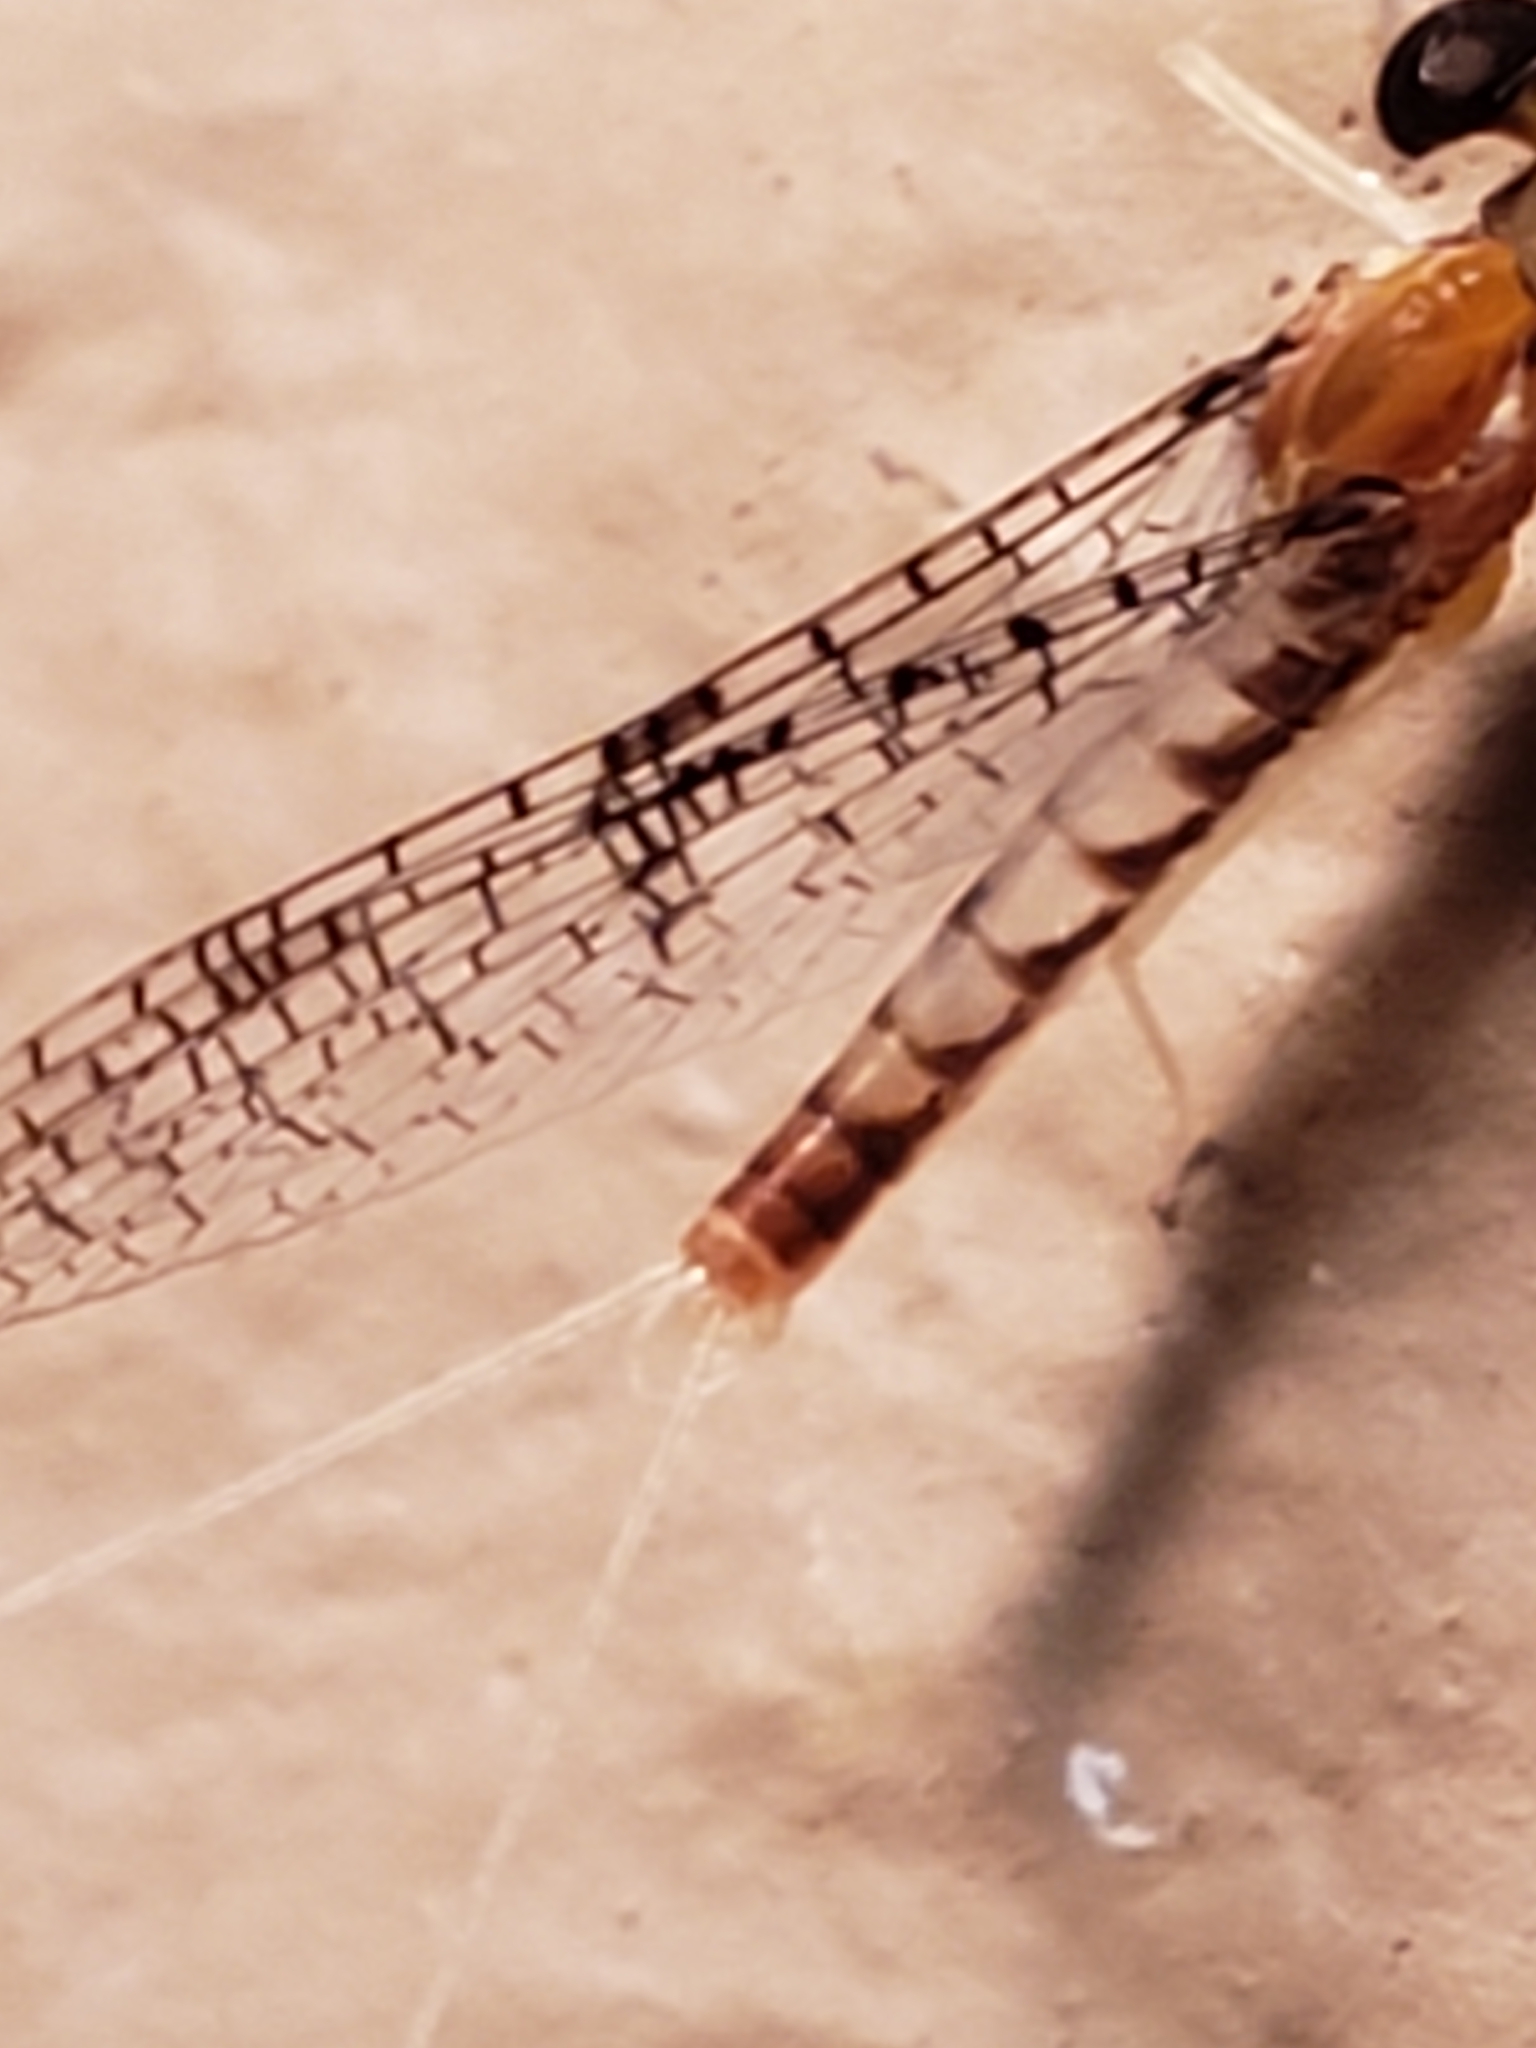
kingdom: Animalia
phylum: Arthropoda
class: Insecta
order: Ephemeroptera
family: Heptageniidae
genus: Leucrocuta
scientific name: Leucrocuta aphrodite
